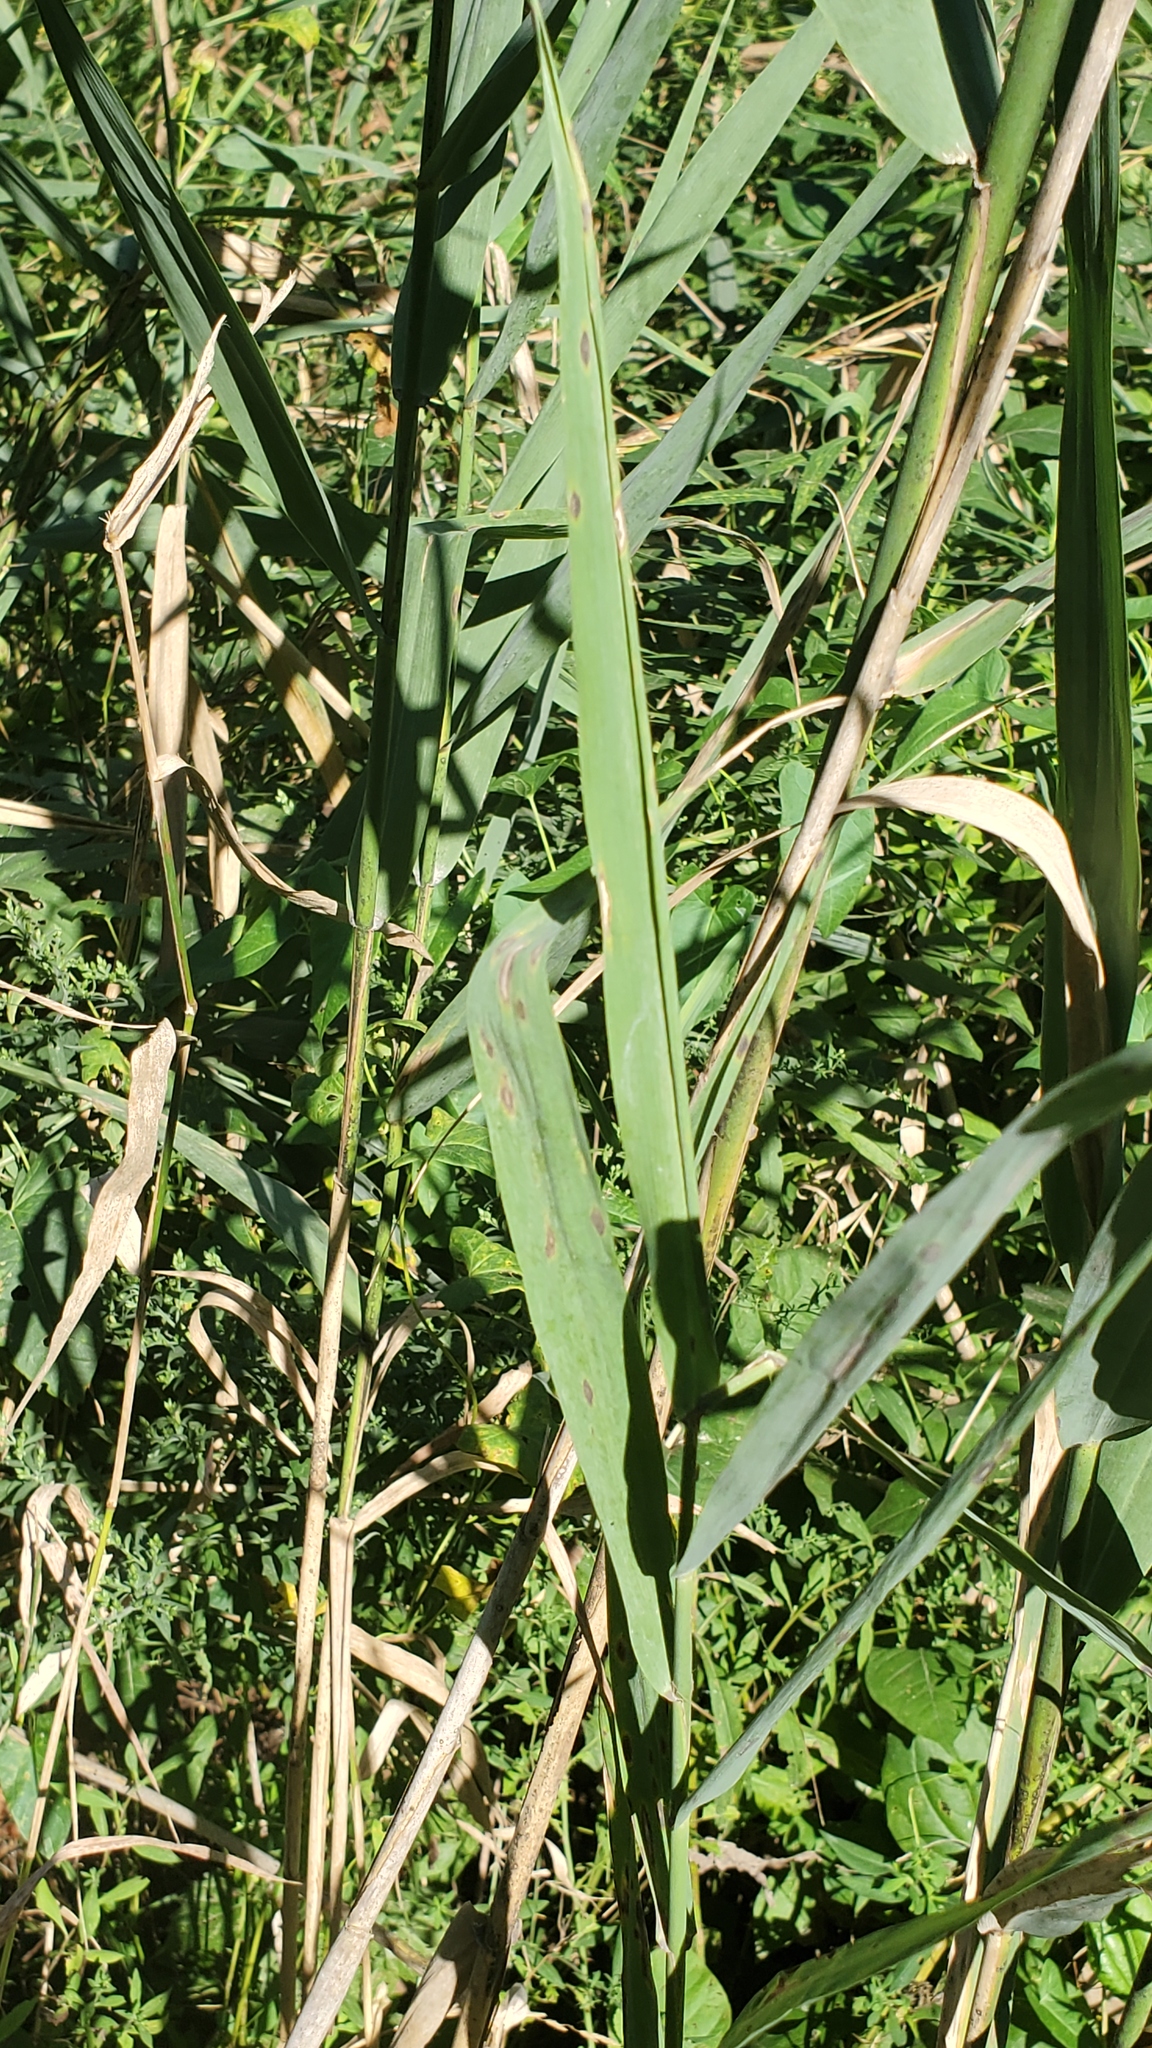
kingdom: Plantae
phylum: Tracheophyta
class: Liliopsida
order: Poales
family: Poaceae
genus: Phragmites
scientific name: Phragmites australis
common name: Common reed
